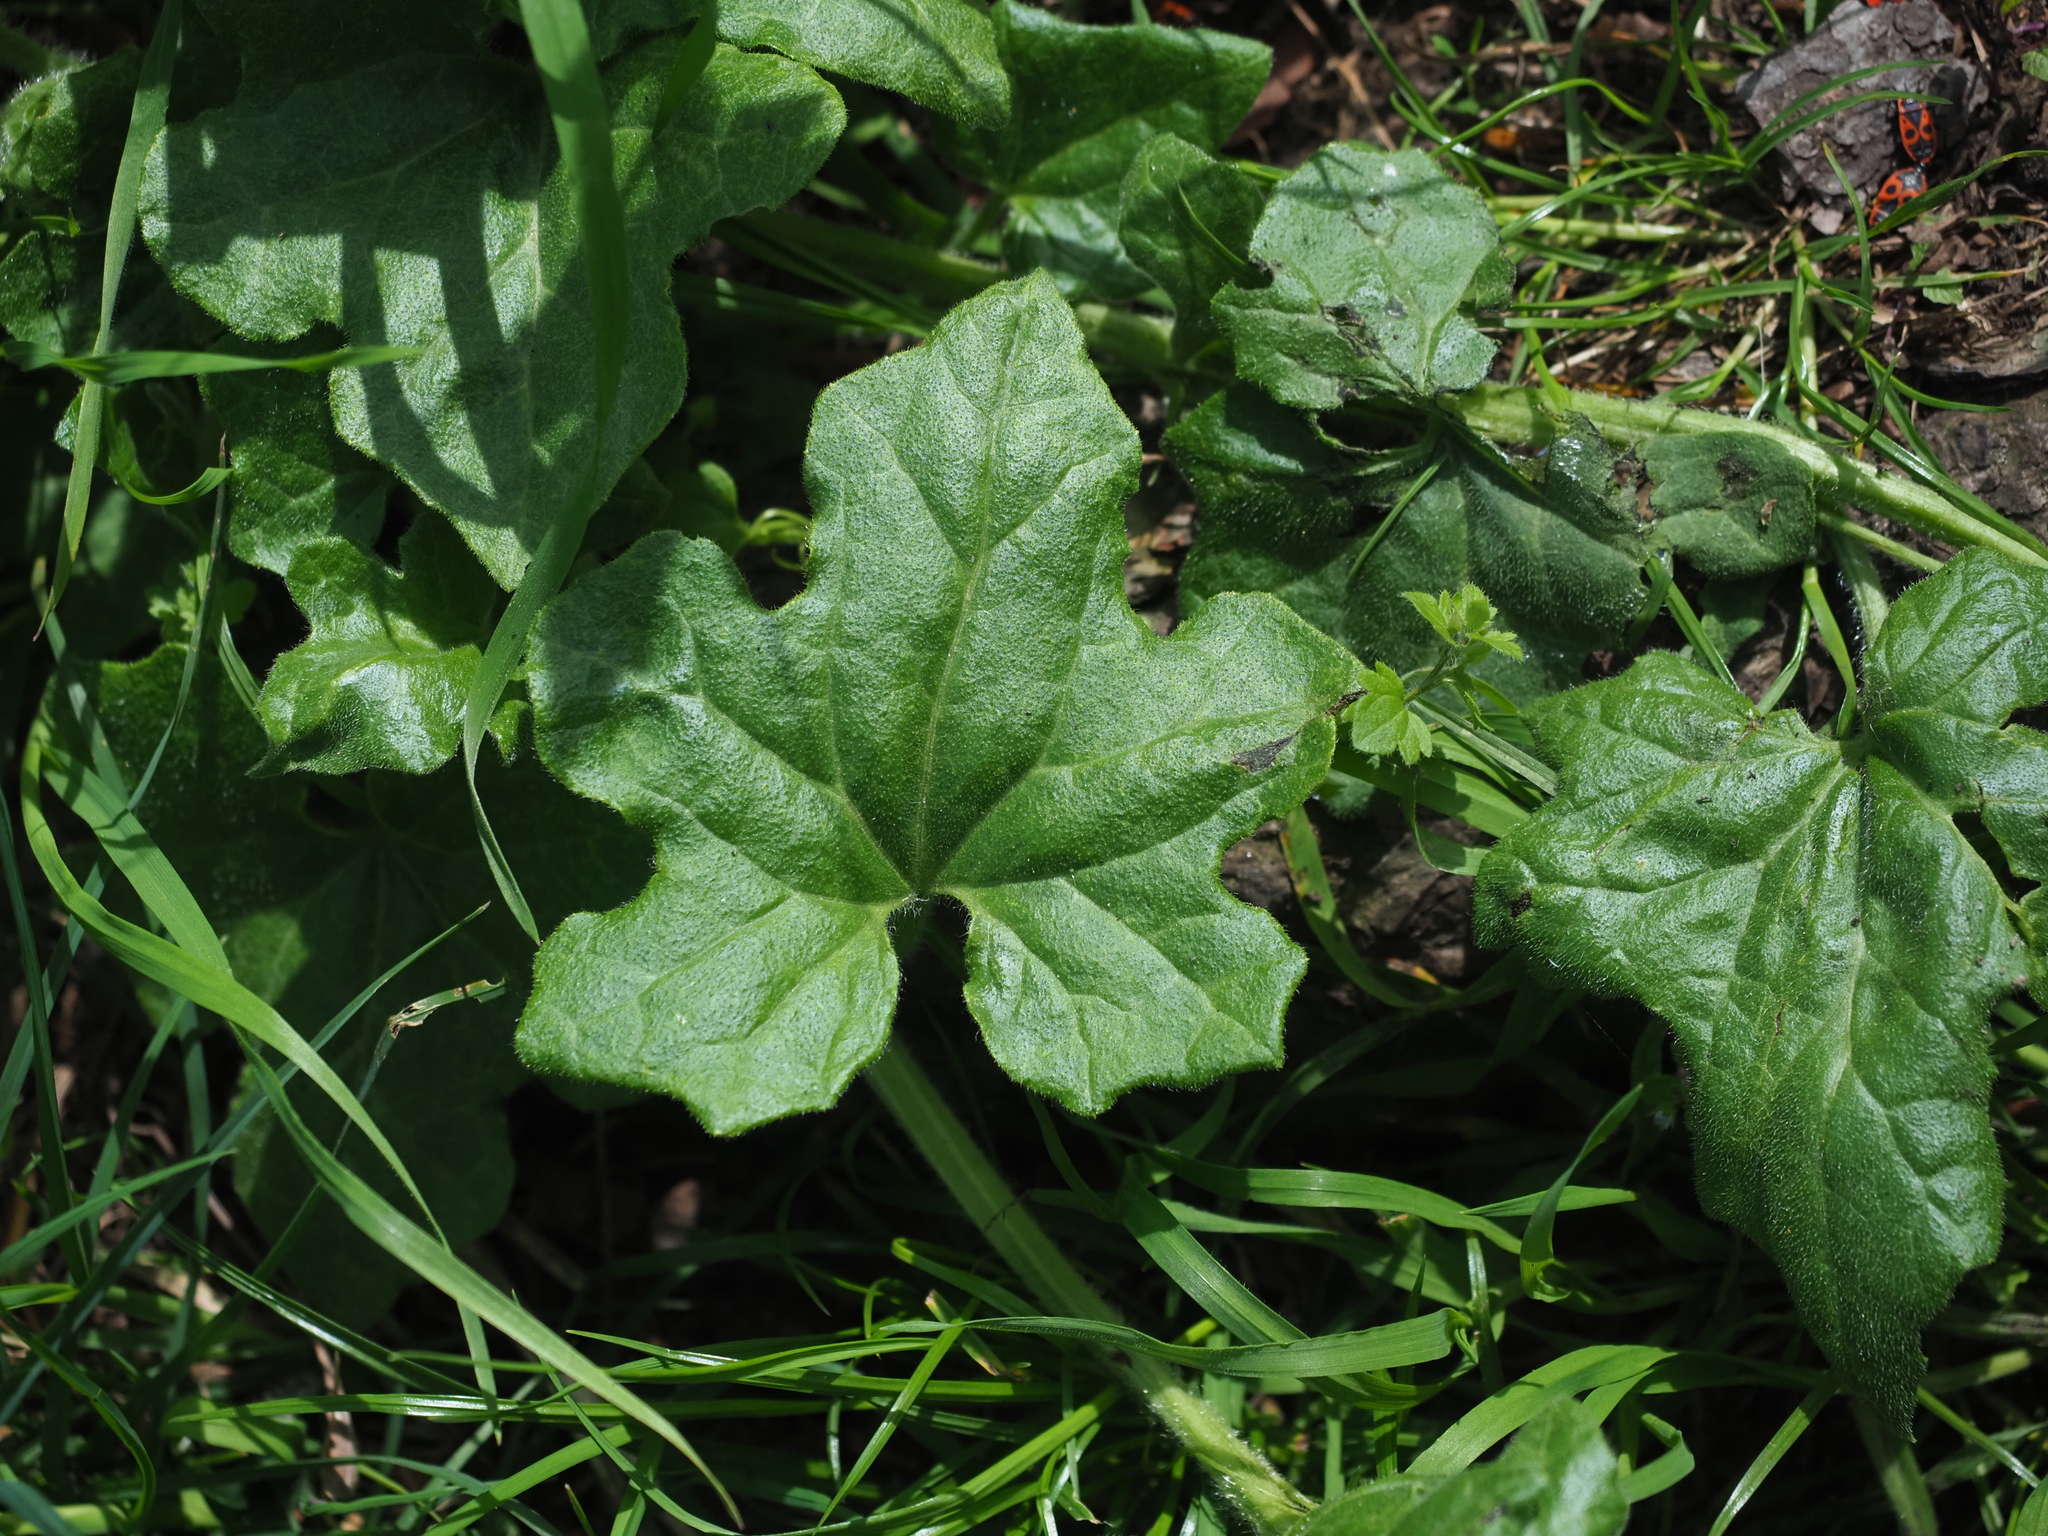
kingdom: Plantae
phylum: Tracheophyta
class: Magnoliopsida
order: Cucurbitales
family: Cucurbitaceae
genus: Bryonia
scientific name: Bryonia cretica
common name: Cretan bryony
